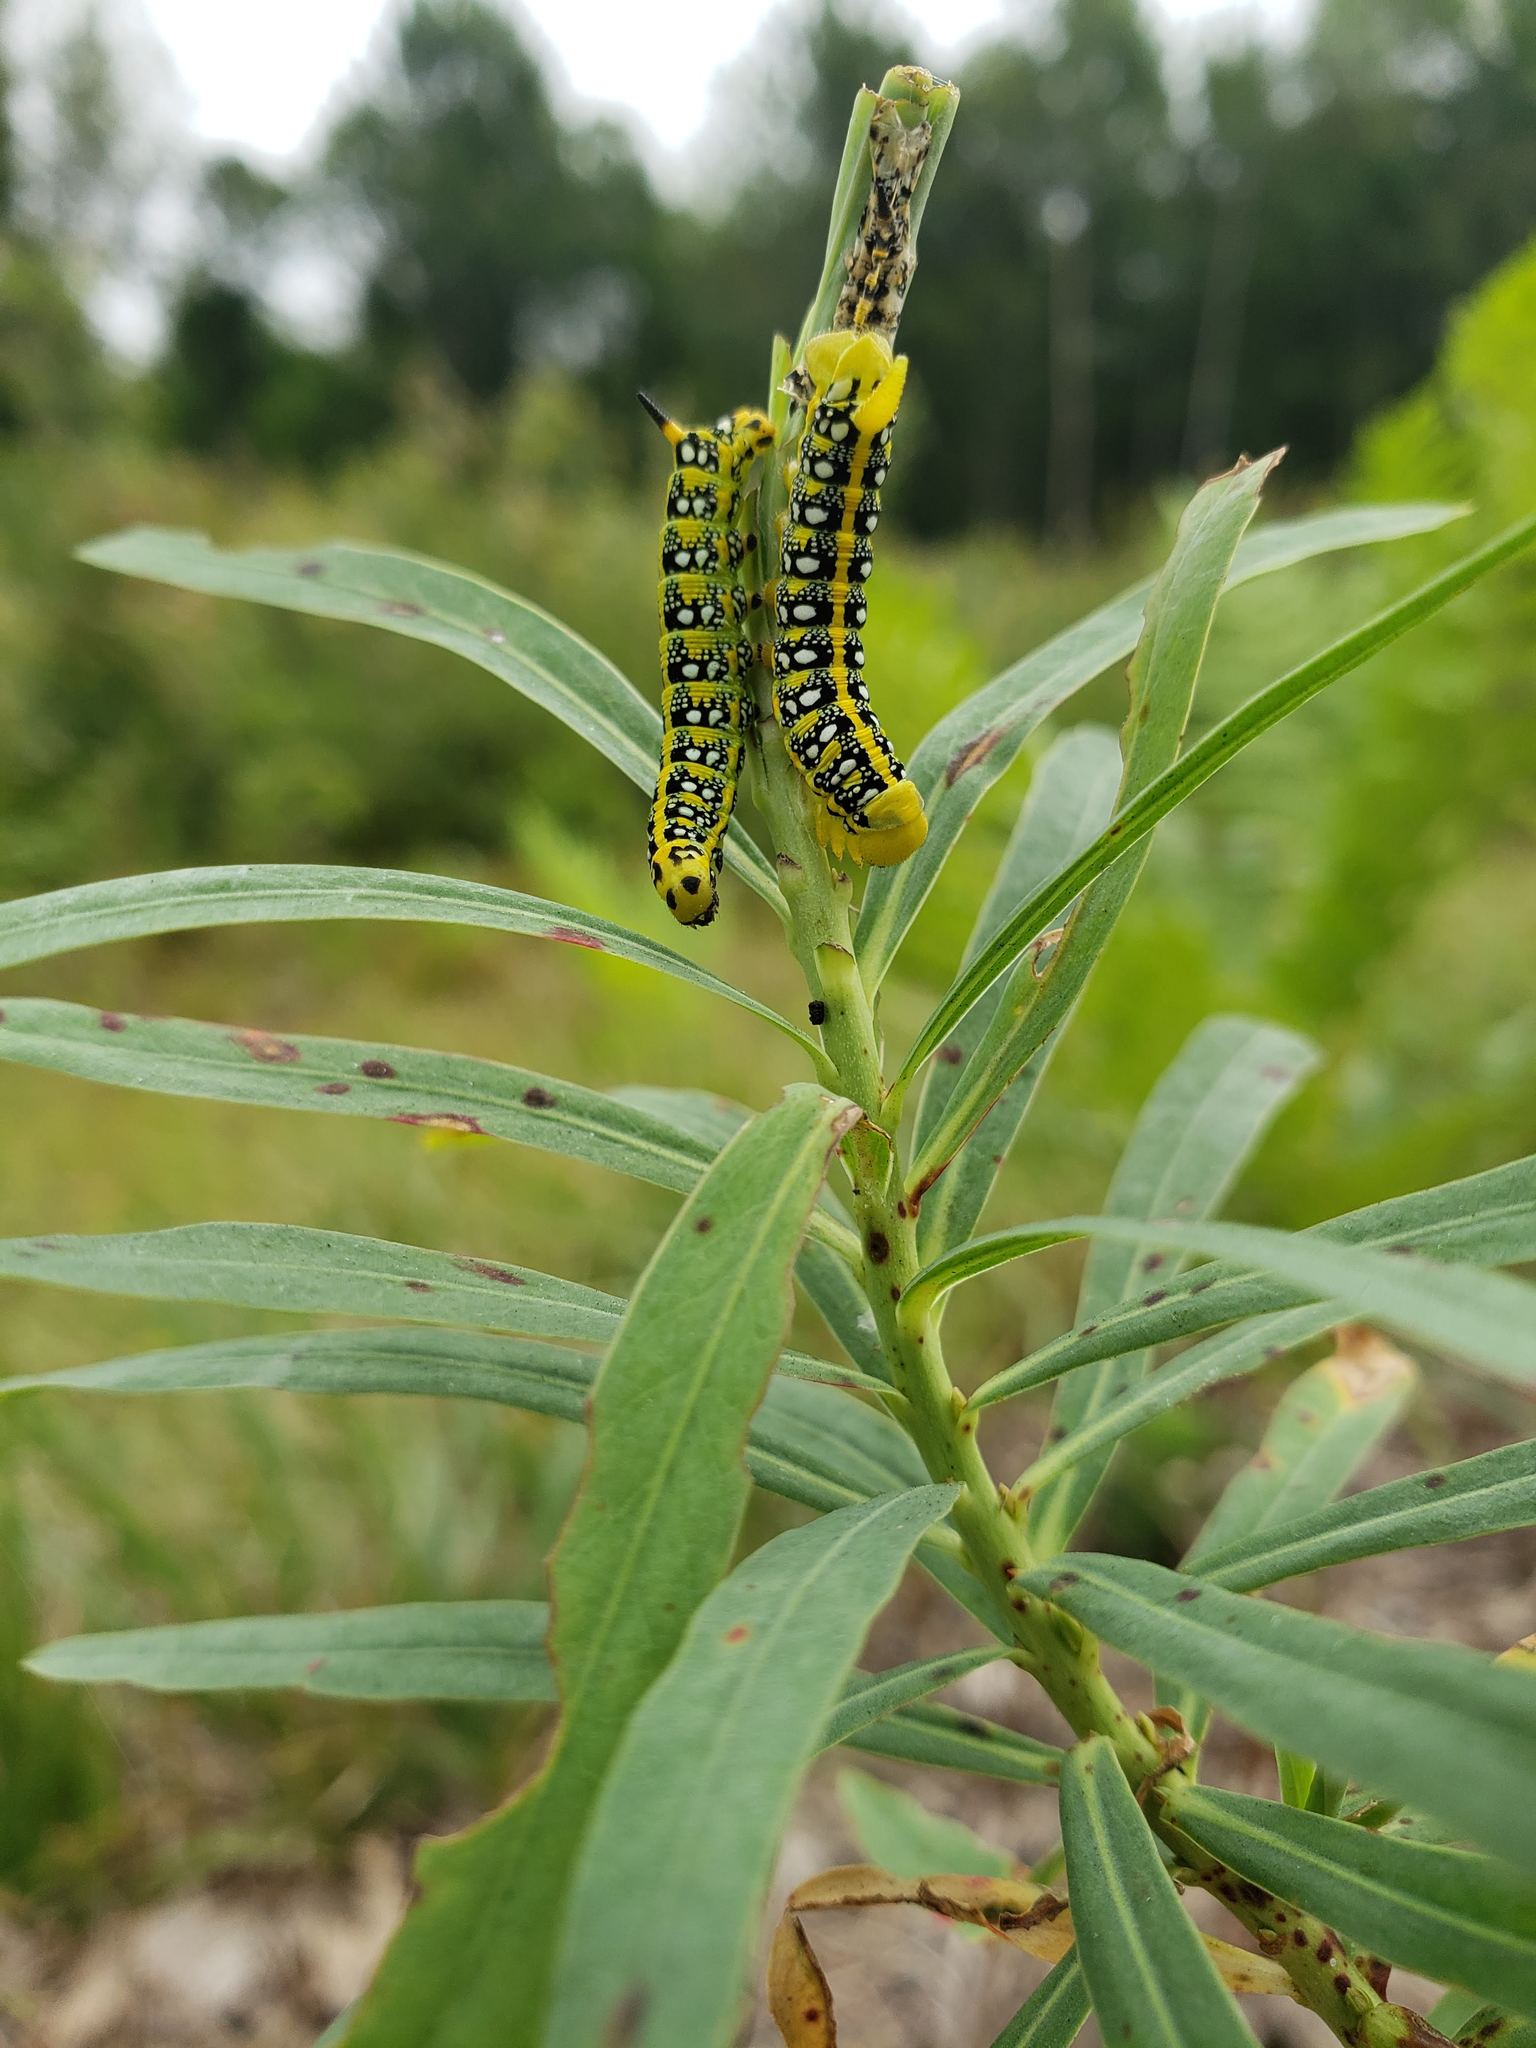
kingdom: Animalia
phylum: Arthropoda
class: Insecta
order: Lepidoptera
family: Sphingidae
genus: Hyles
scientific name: Hyles euphorbiae
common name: Spurge hawk-moth
